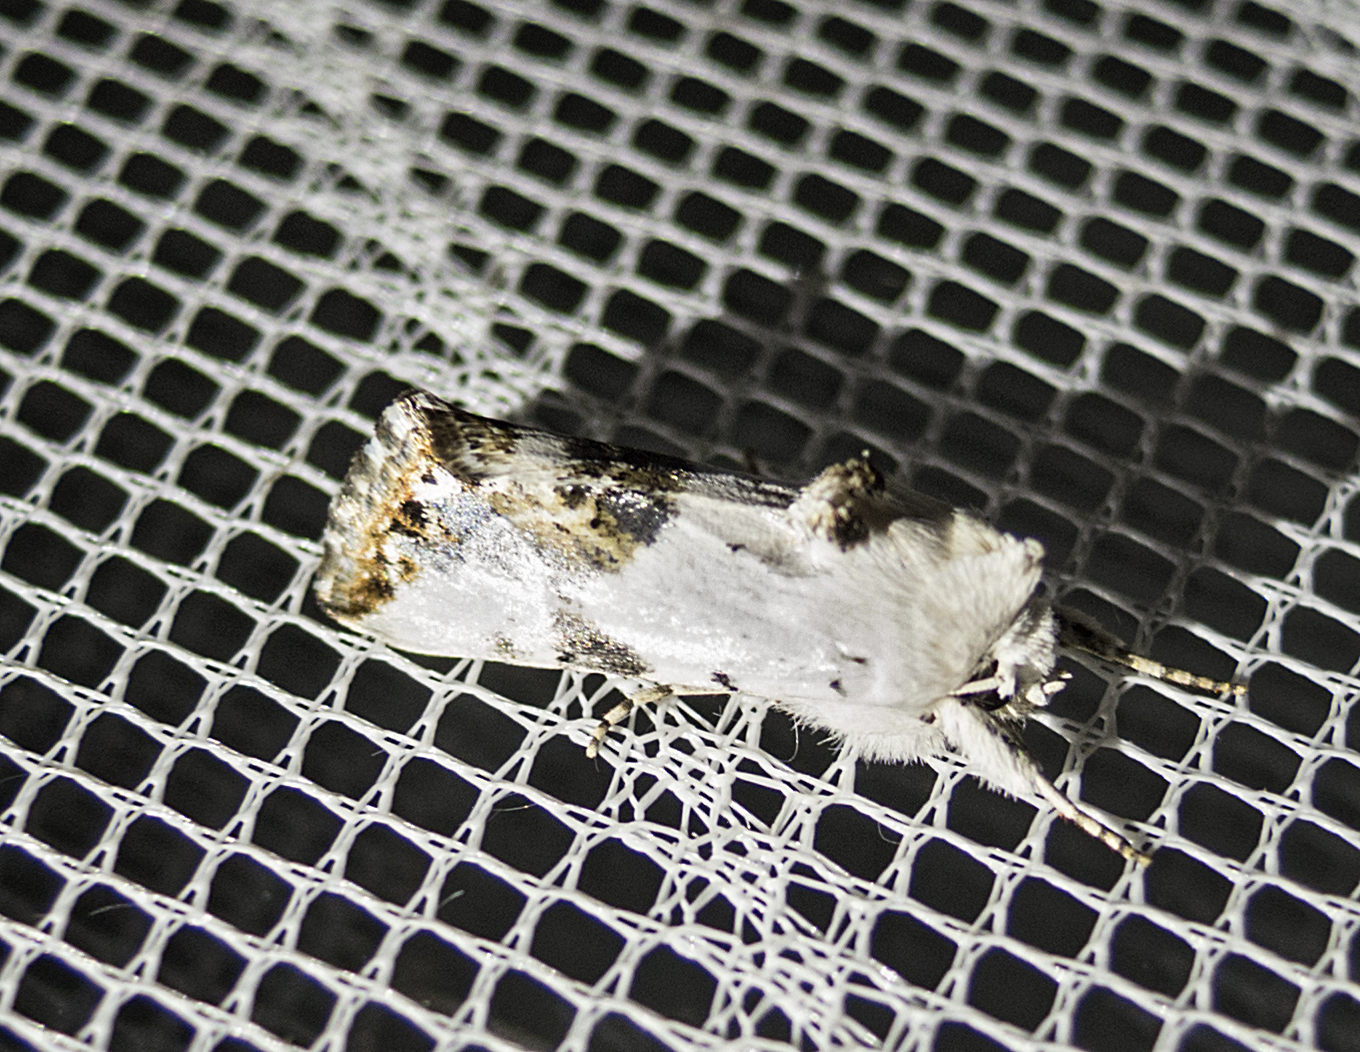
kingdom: Animalia
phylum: Arthropoda
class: Insecta
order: Lepidoptera
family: Noctuidae
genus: Calophasia
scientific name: Calophasia opalina
